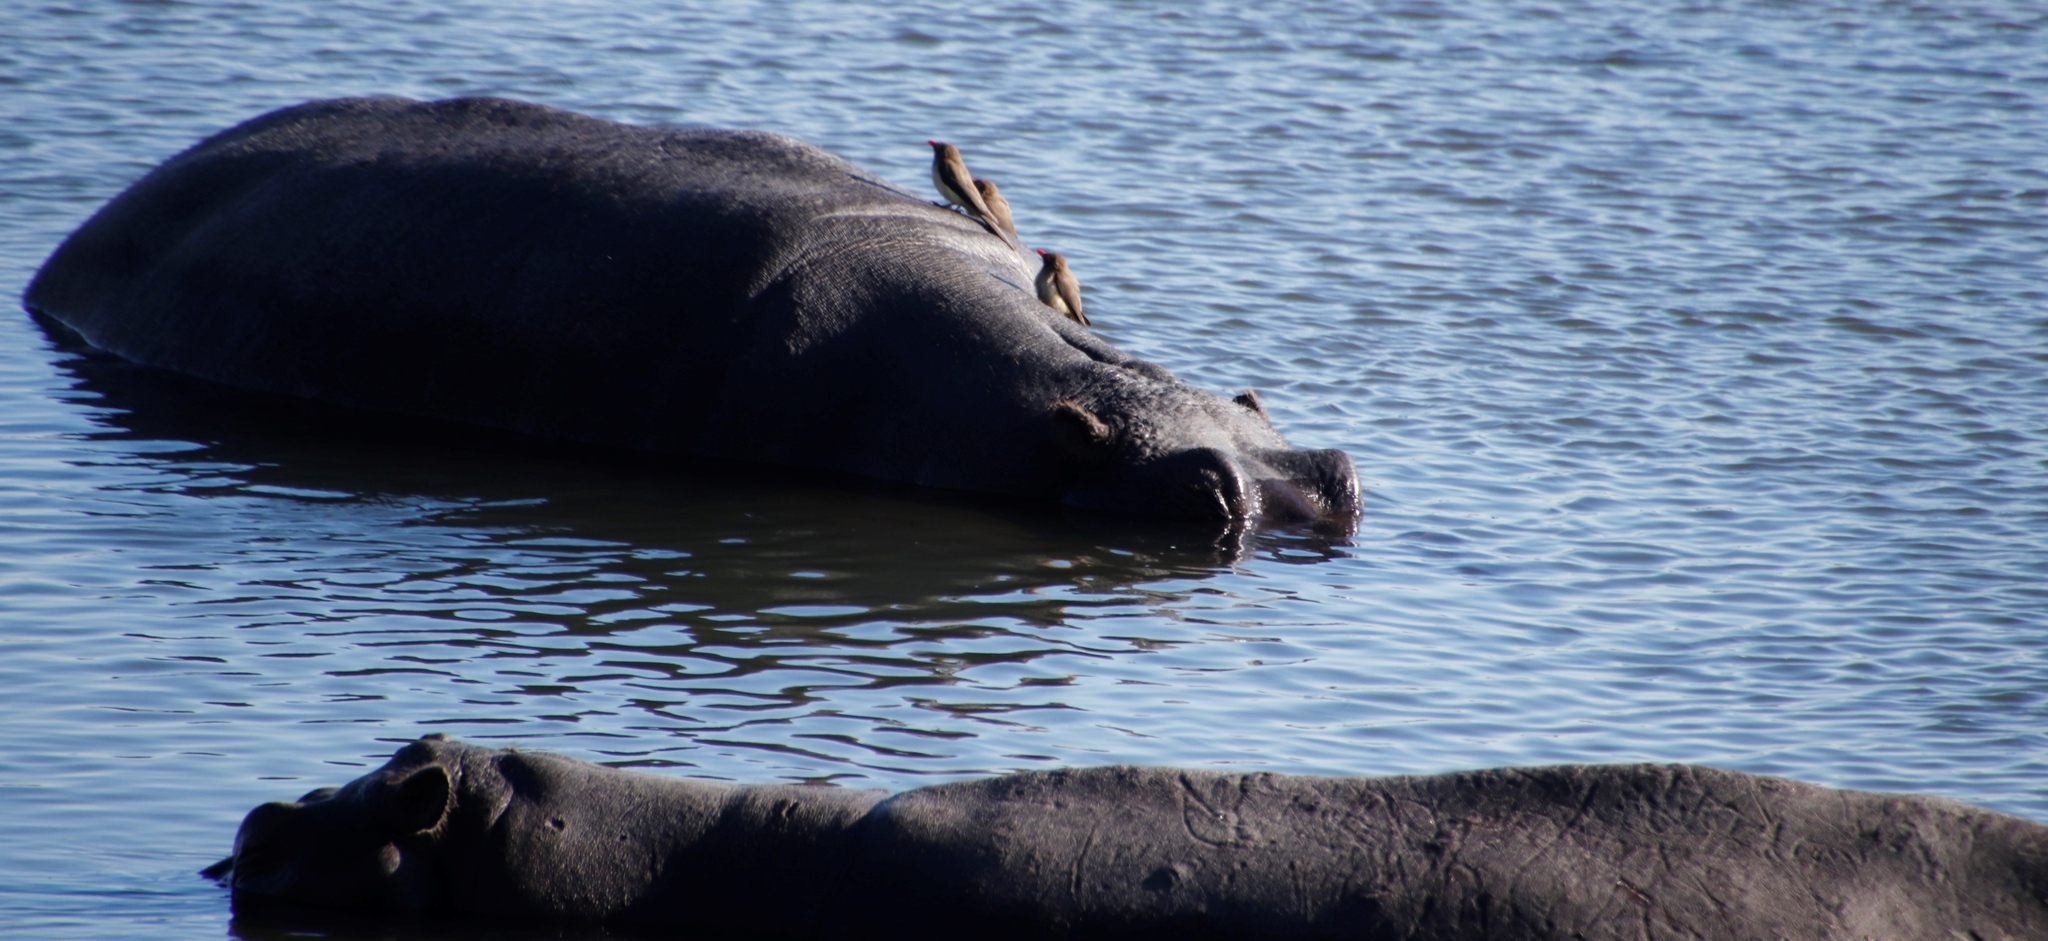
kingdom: Animalia
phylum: Chordata
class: Aves
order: Passeriformes
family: Buphagidae
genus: Buphagus
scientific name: Buphagus erythrorhynchus
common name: Red-billed oxpecker
